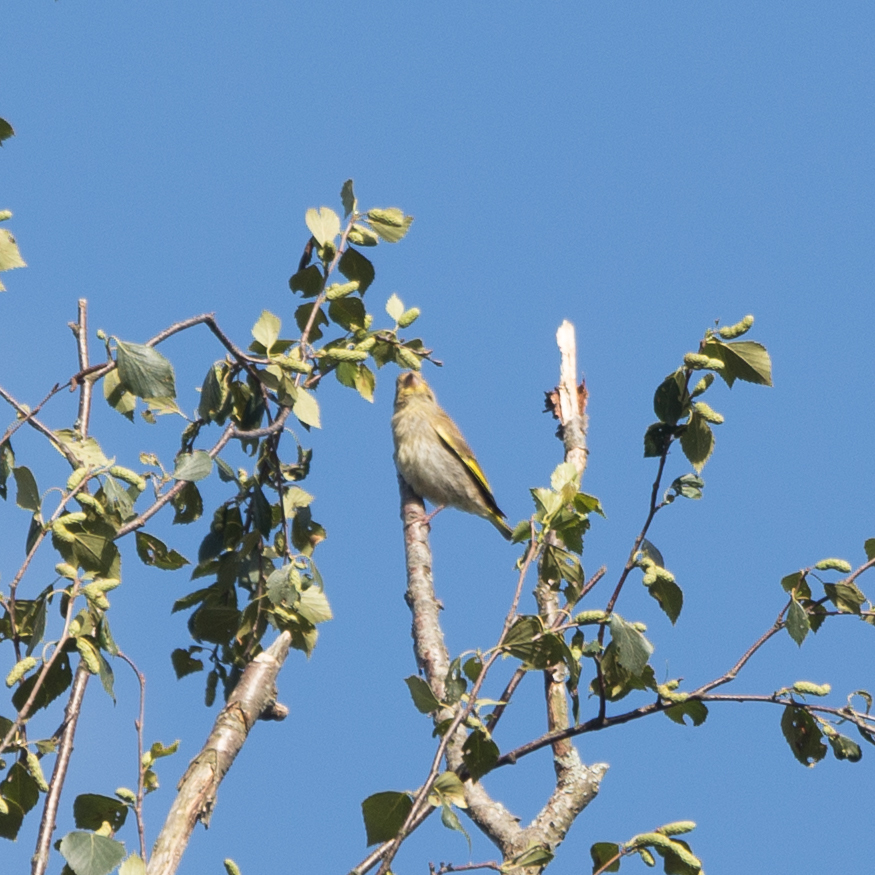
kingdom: Plantae
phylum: Tracheophyta
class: Liliopsida
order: Poales
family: Poaceae
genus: Chloris
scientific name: Chloris chloris
